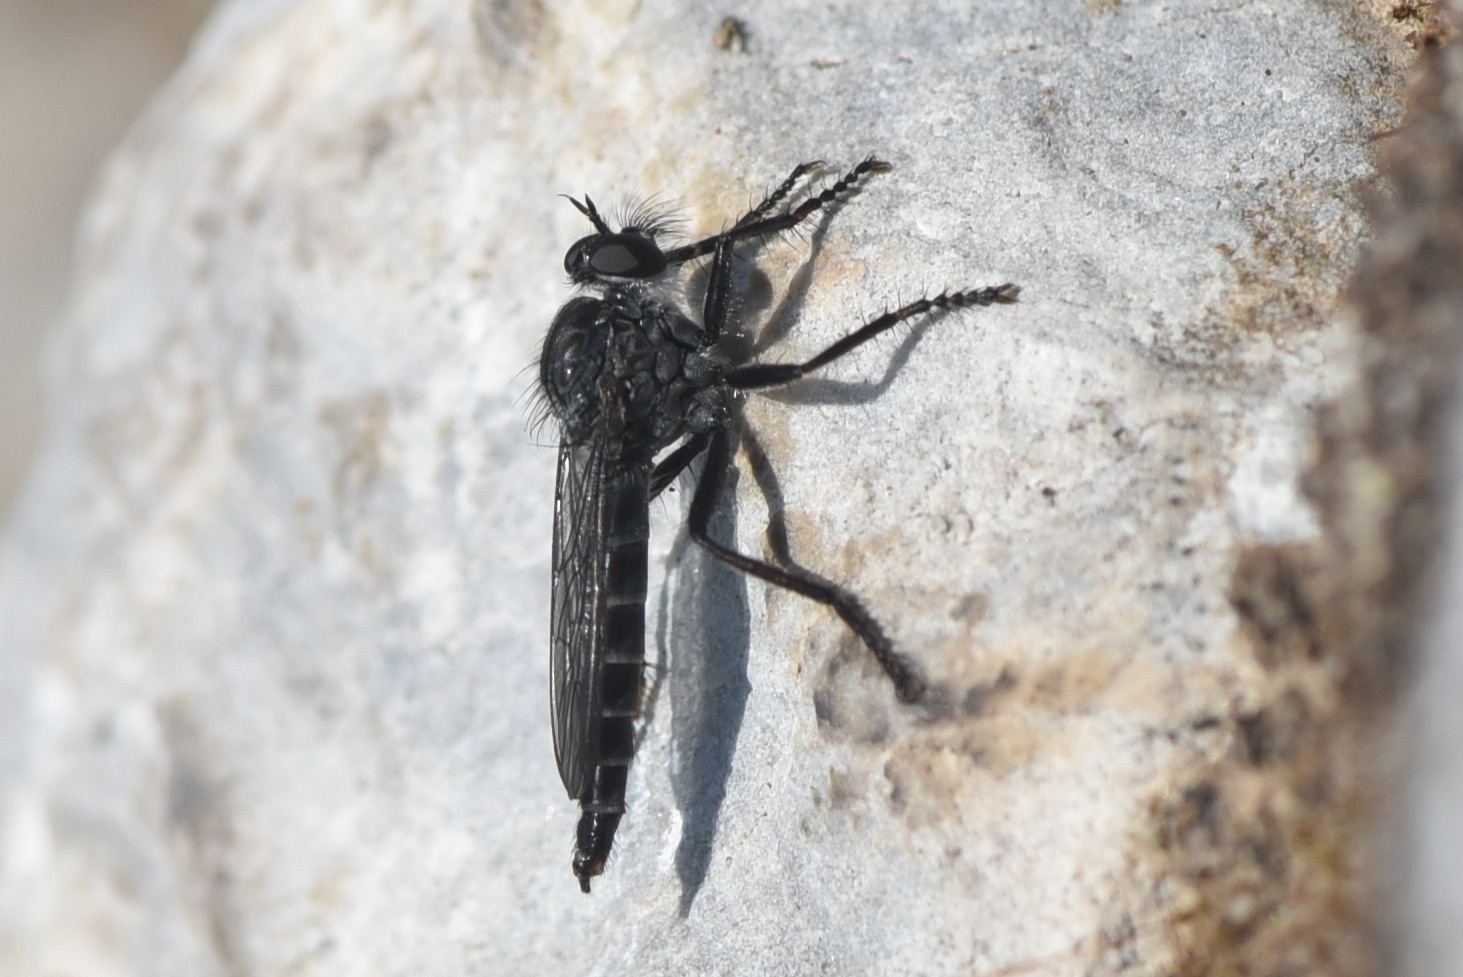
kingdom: Animalia
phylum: Arthropoda
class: Insecta
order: Diptera
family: Asilidae
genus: Rhadiurgus
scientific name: Rhadiurgus variabilis
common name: Northern robberfly
